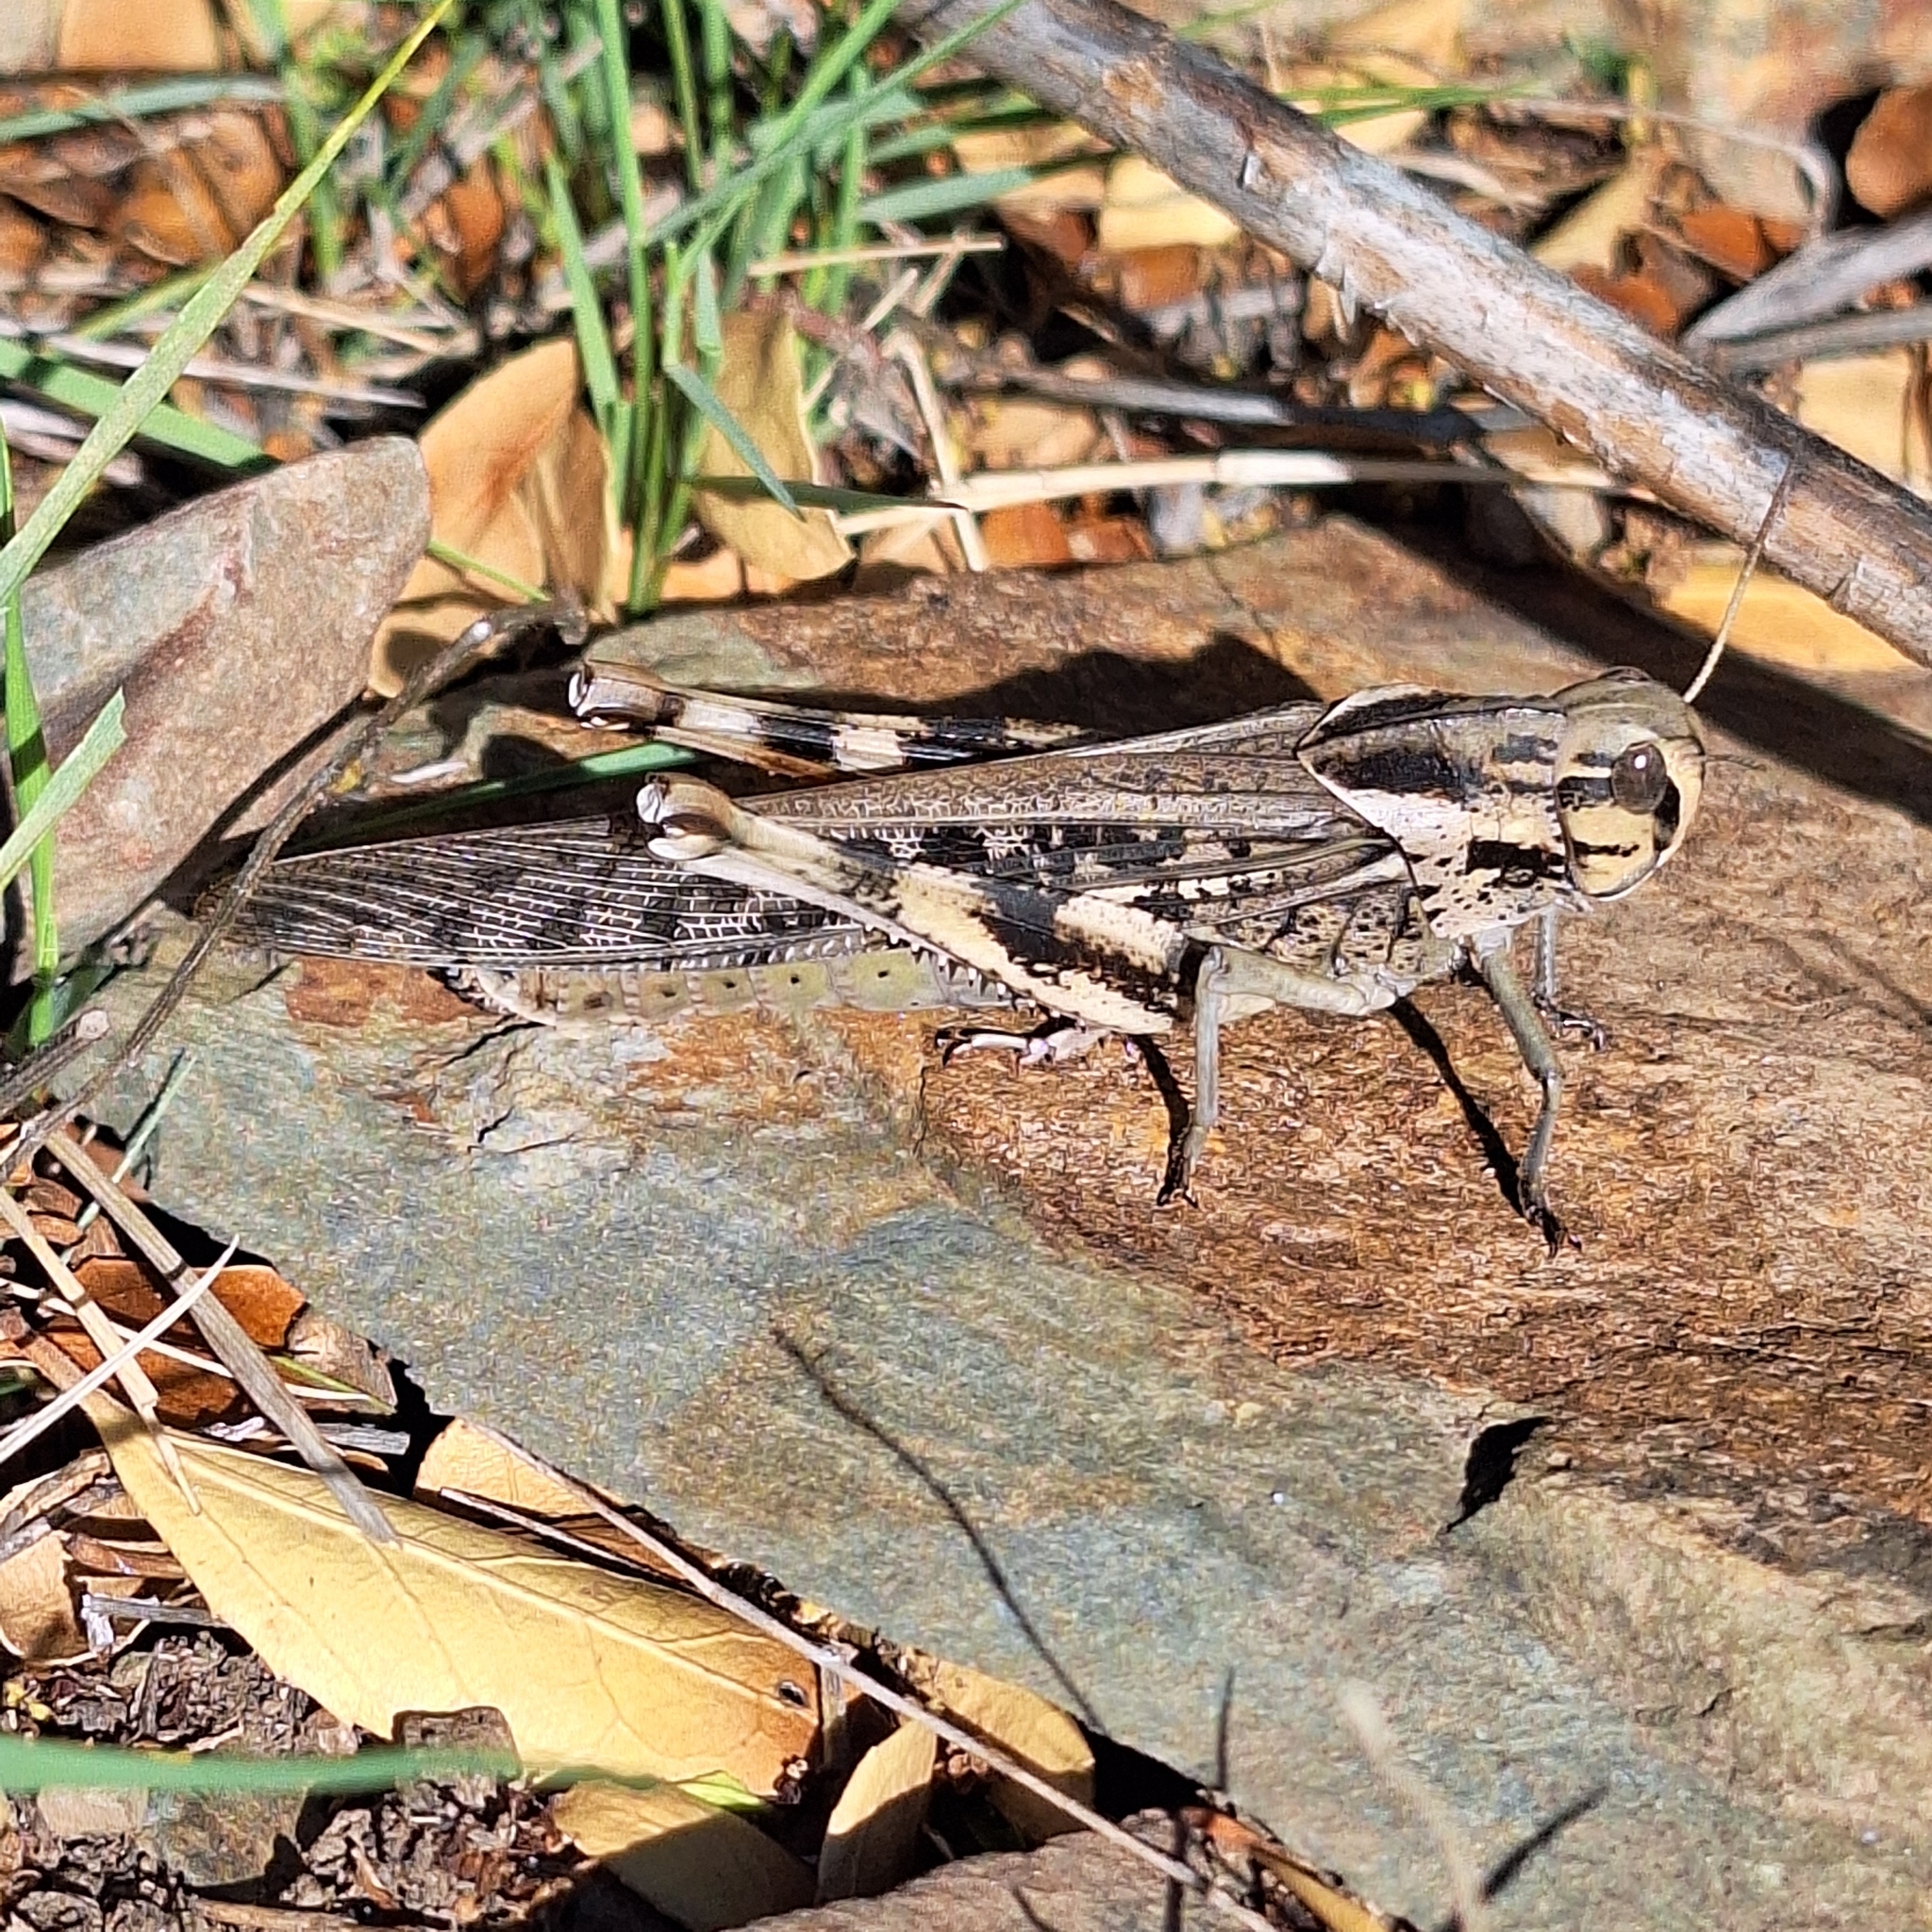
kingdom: Animalia
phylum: Arthropoda
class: Insecta
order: Orthoptera
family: Acrididae
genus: Locusta
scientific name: Locusta migratoria
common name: Migratory locust
